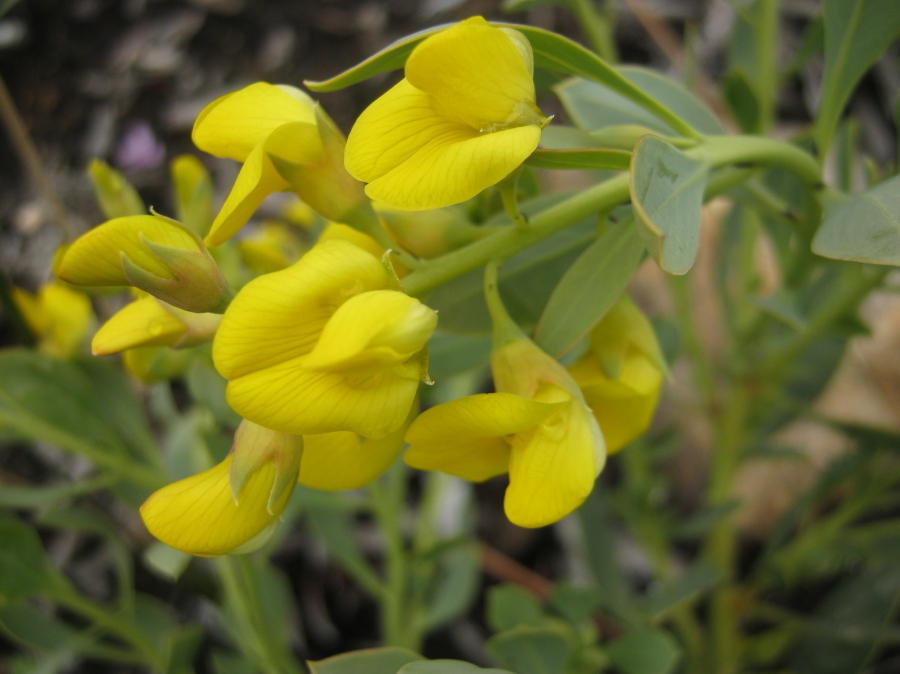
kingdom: Plantae
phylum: Tracheophyta
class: Magnoliopsida
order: Fabales
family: Fabaceae
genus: Rafnia
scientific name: Rafnia racemosa
